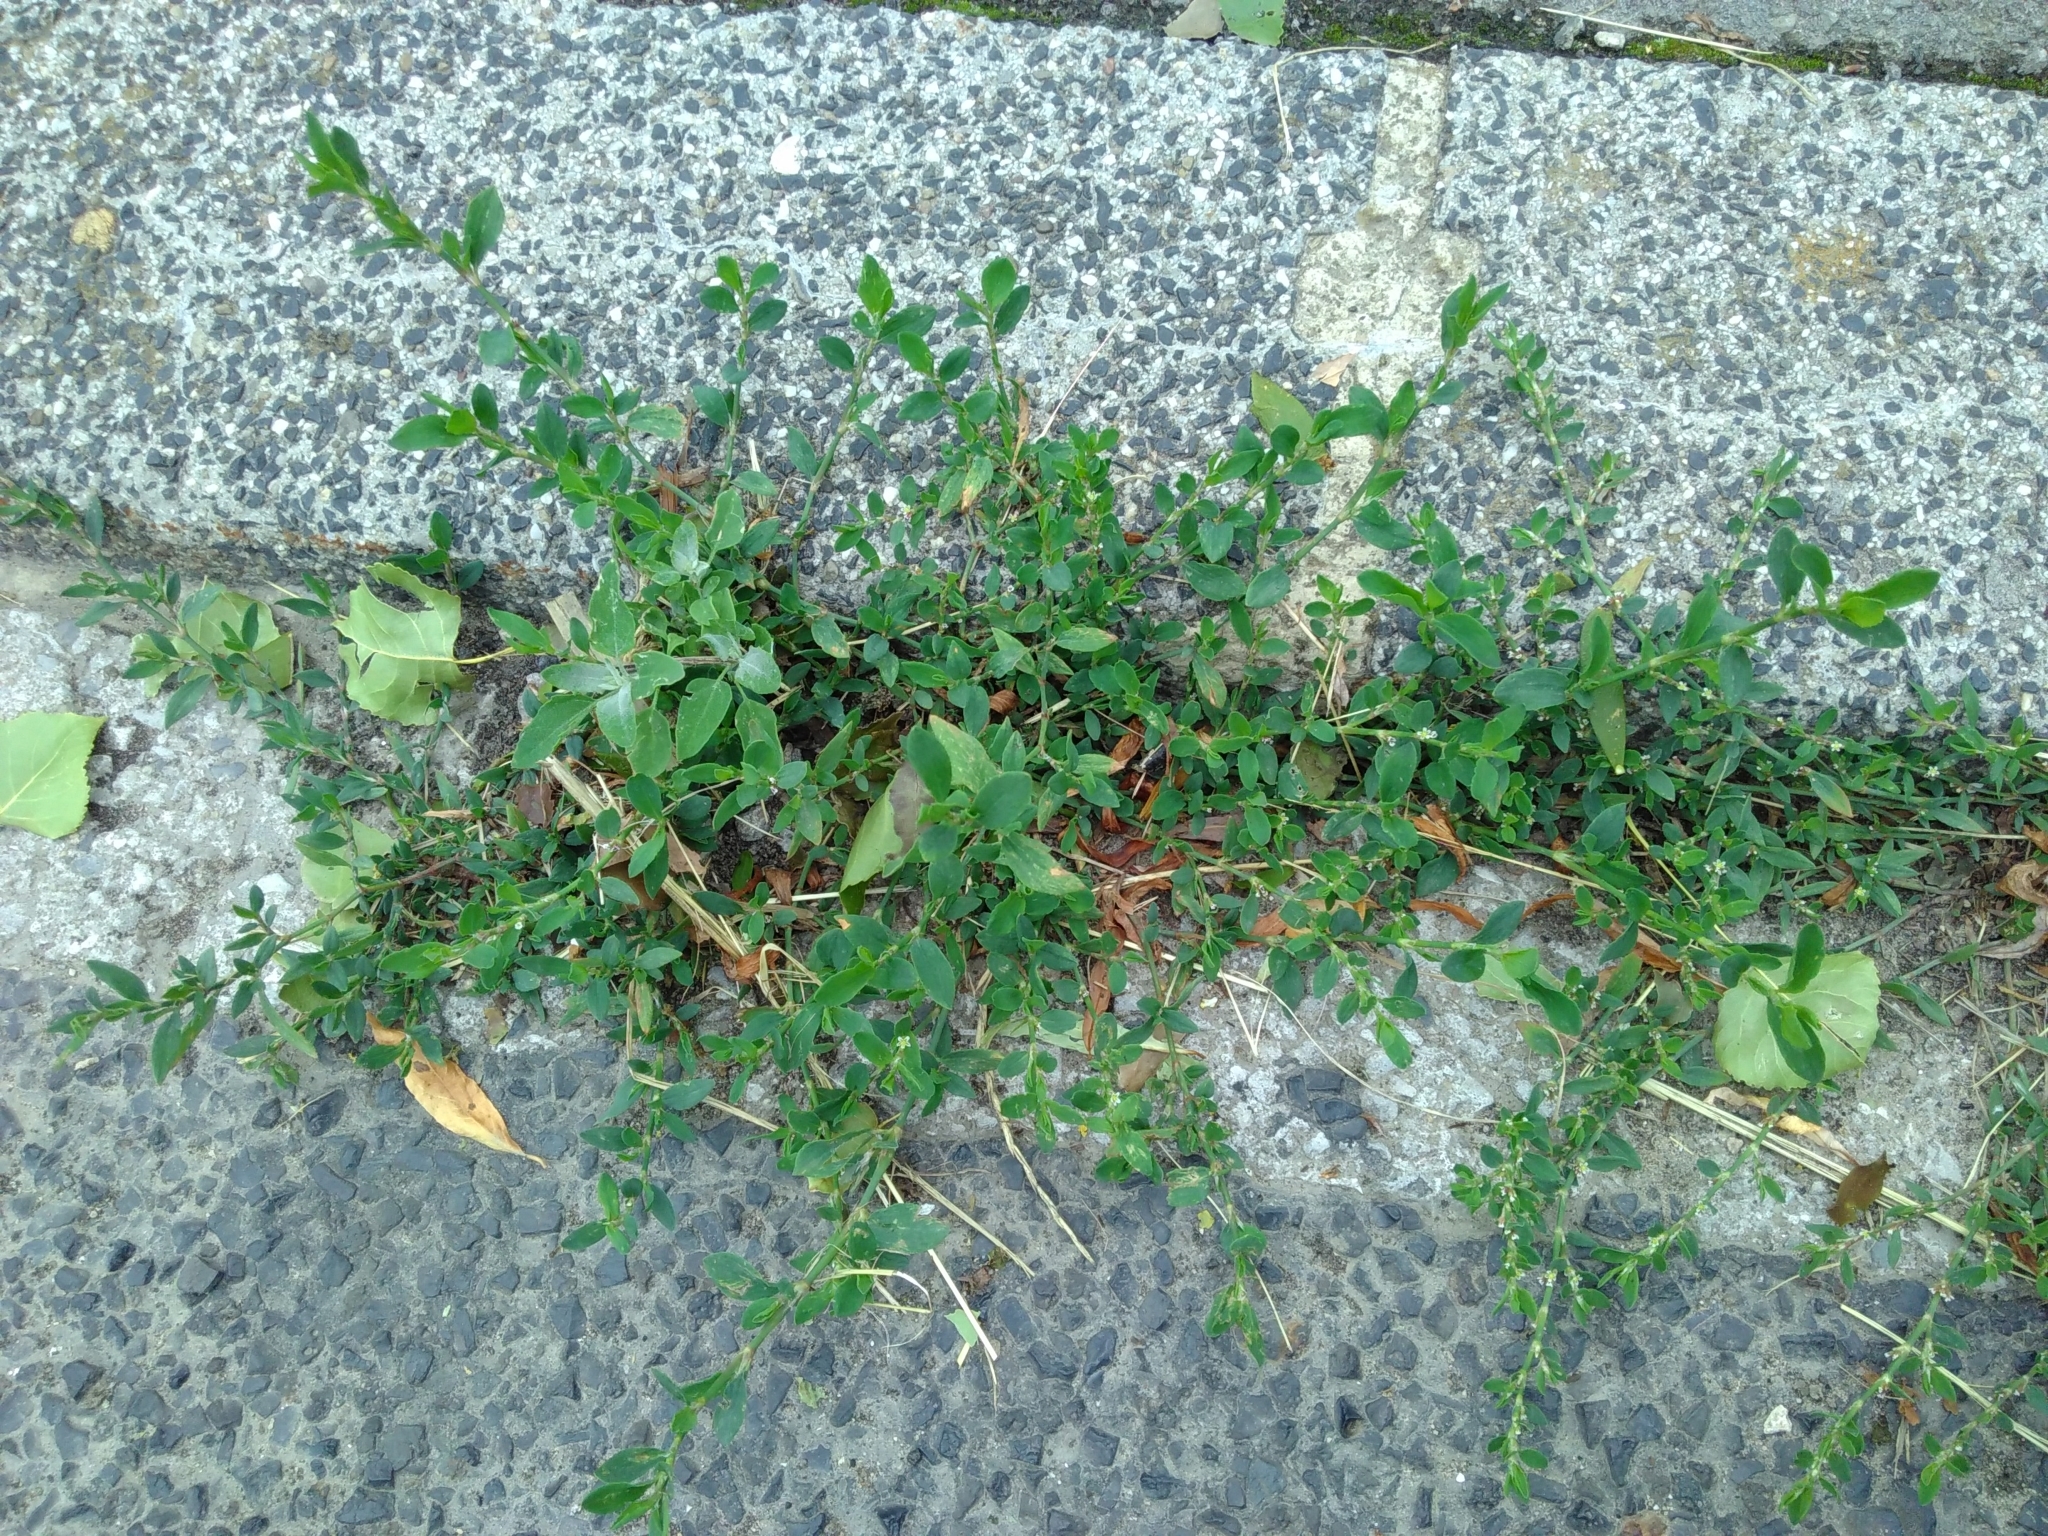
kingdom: Plantae
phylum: Tracheophyta
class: Magnoliopsida
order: Caryophyllales
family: Polygonaceae
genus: Polygonum
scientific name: Polygonum aviculare
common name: Prostrate knotweed
